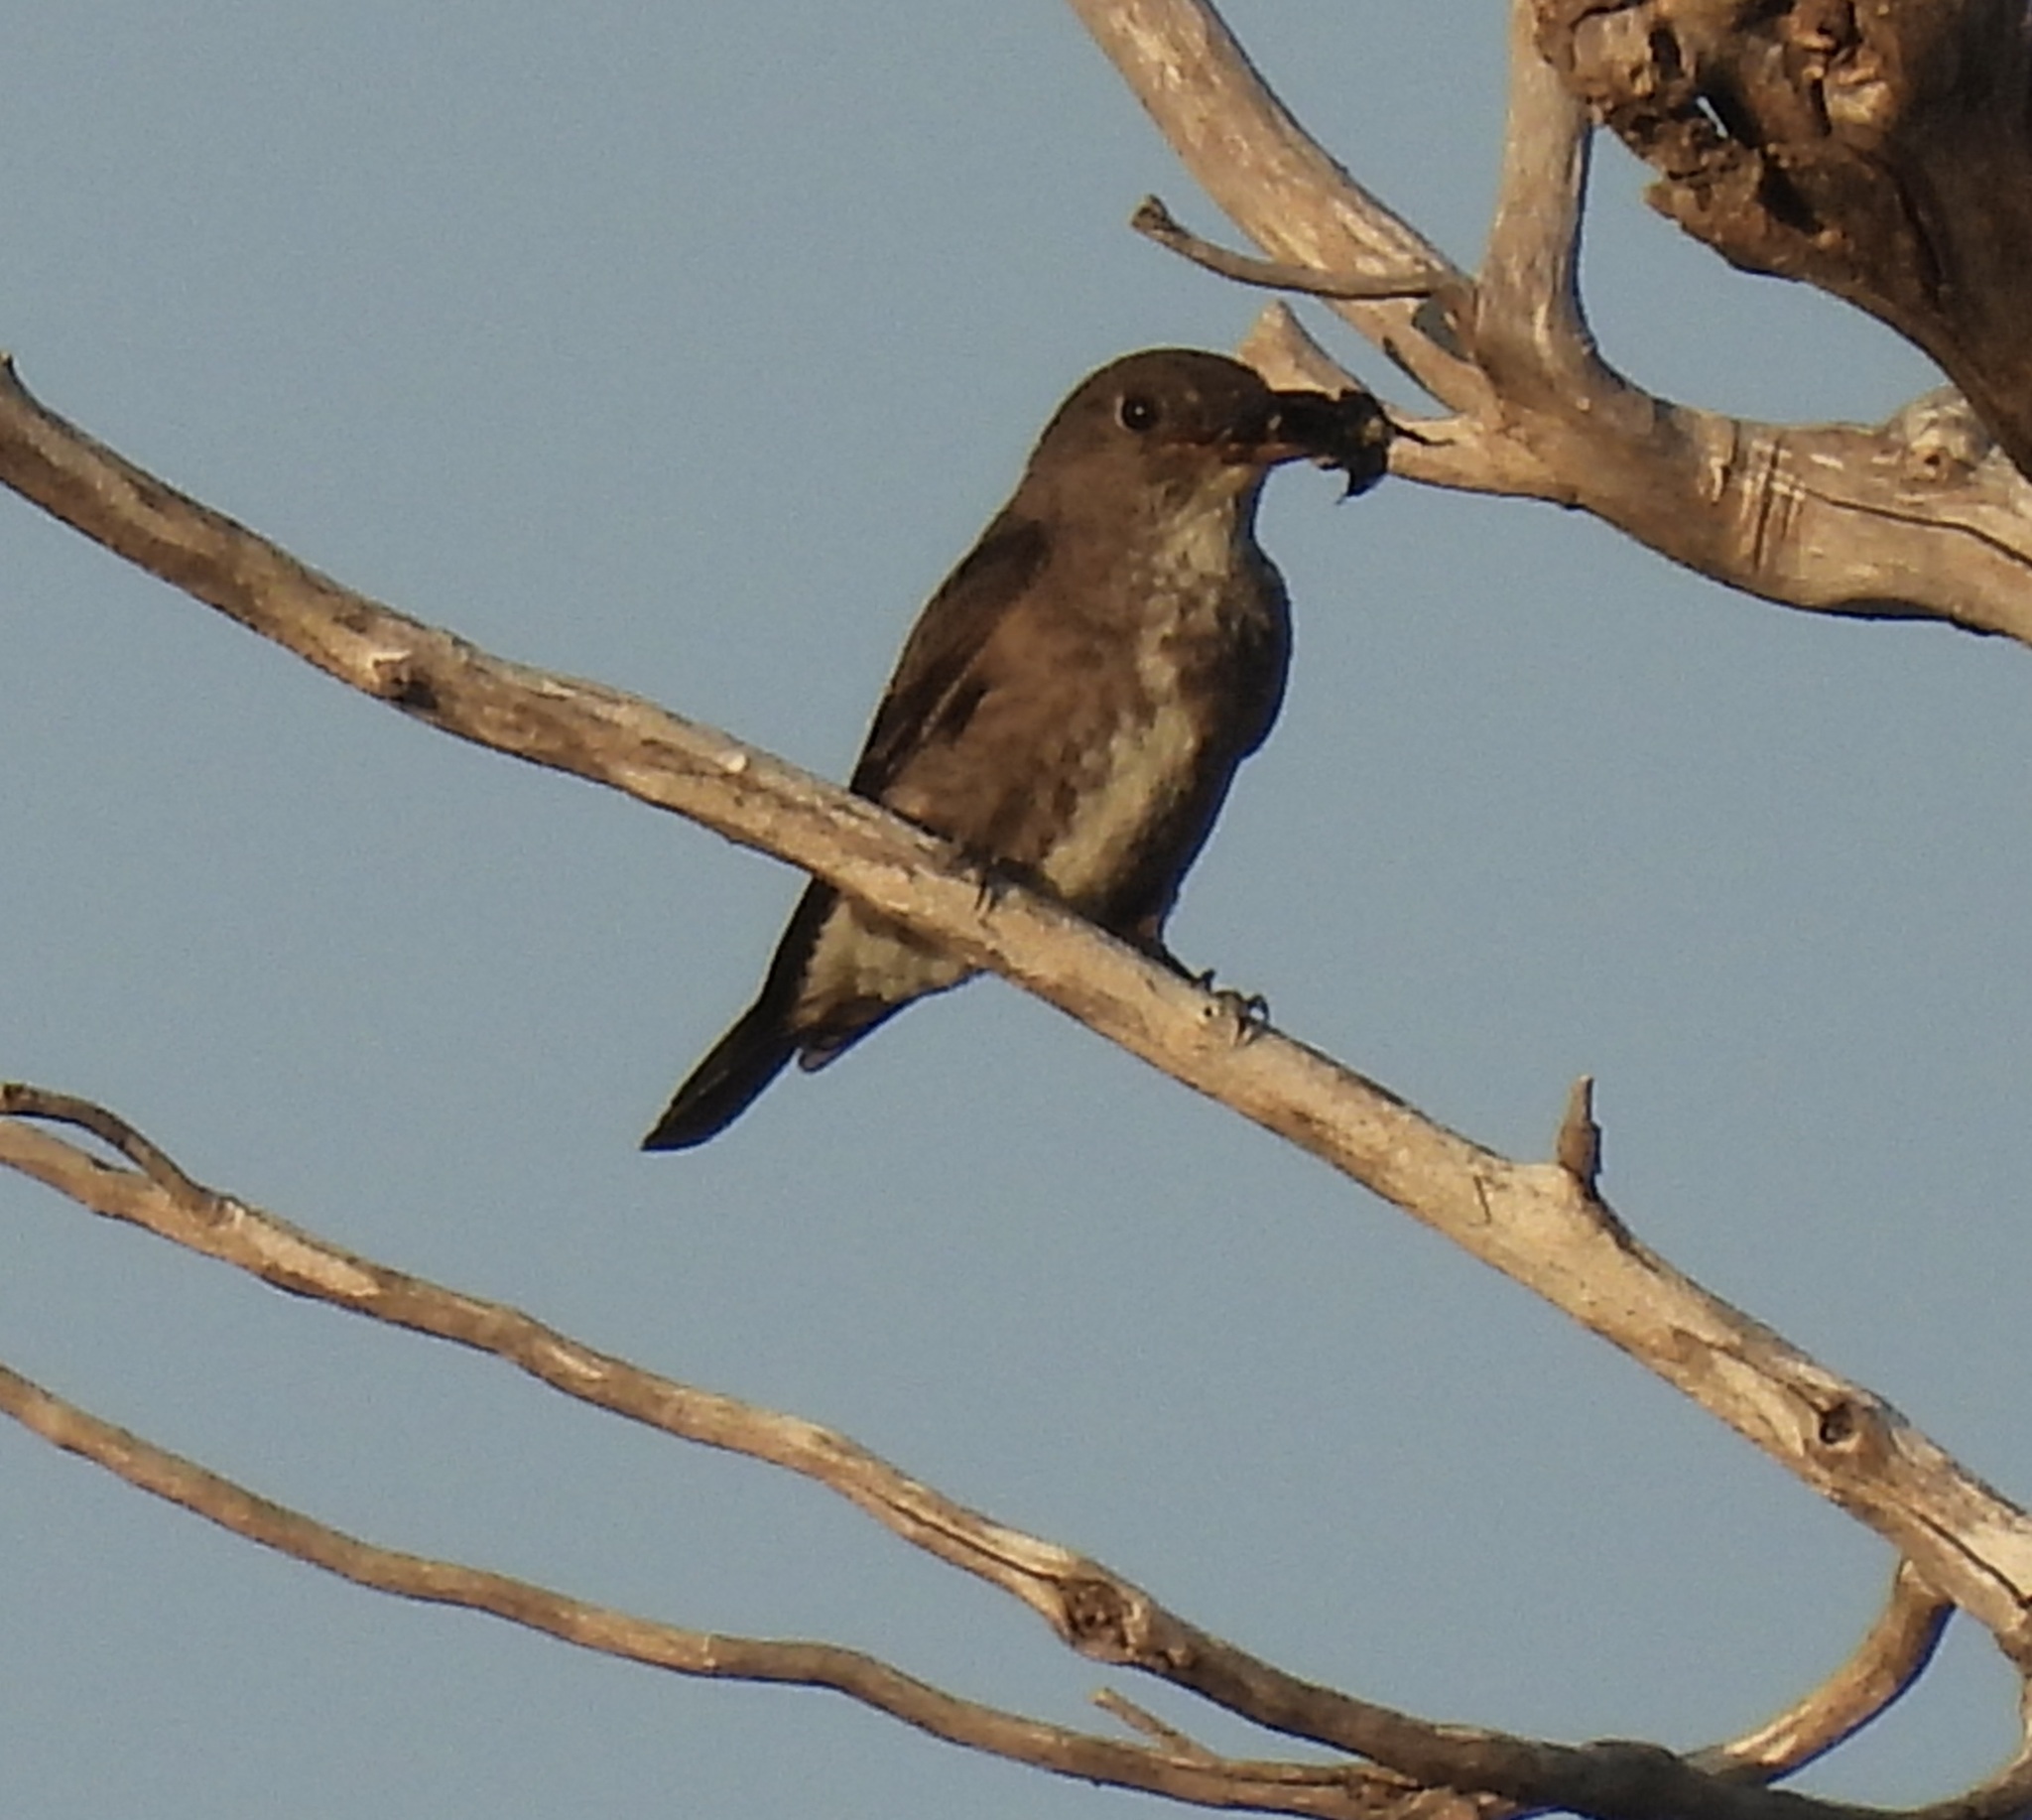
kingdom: Animalia
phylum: Chordata
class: Aves
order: Passeriformes
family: Tyrannidae
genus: Contopus
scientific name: Contopus cooperi
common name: Olive-sided flycatcher
